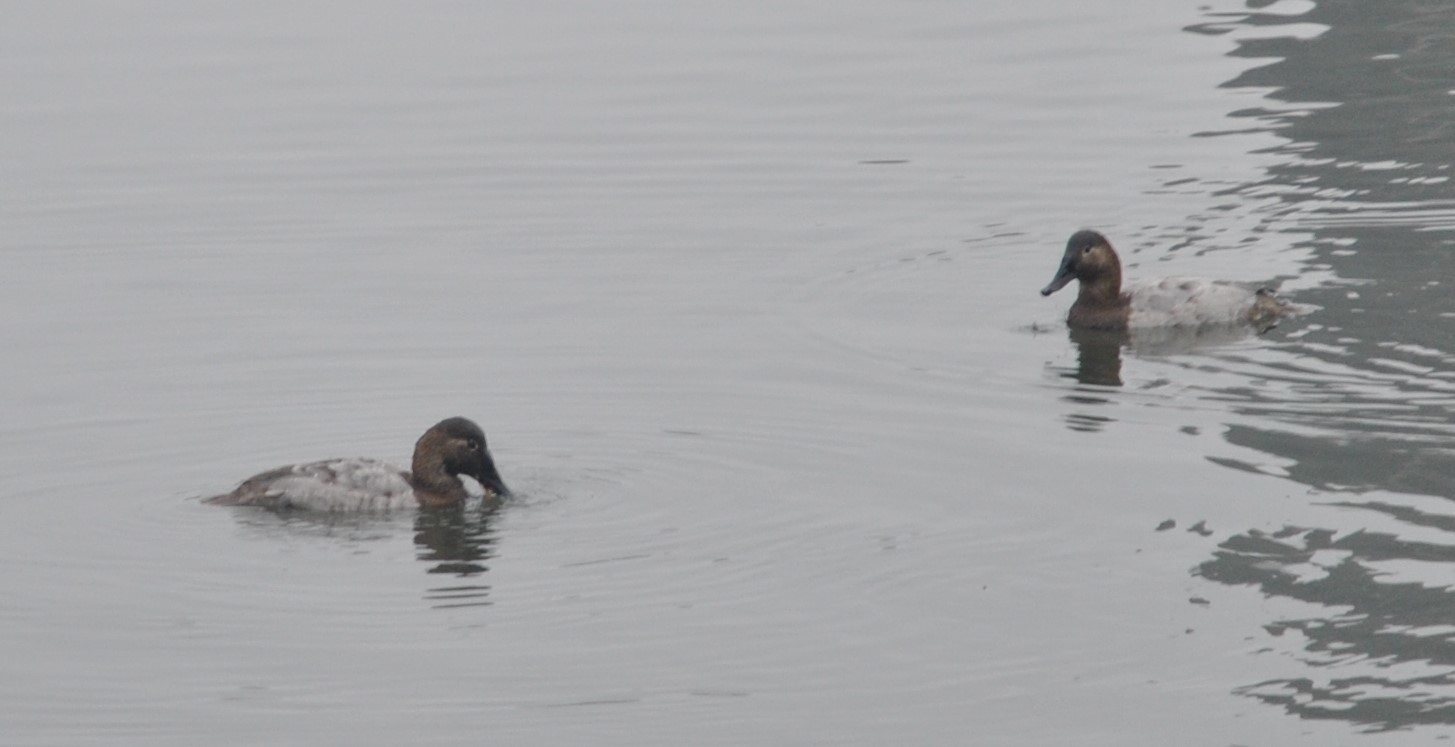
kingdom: Animalia
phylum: Chordata
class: Aves
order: Anseriformes
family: Anatidae
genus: Aythya
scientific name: Aythya valisineria
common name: Canvasback
